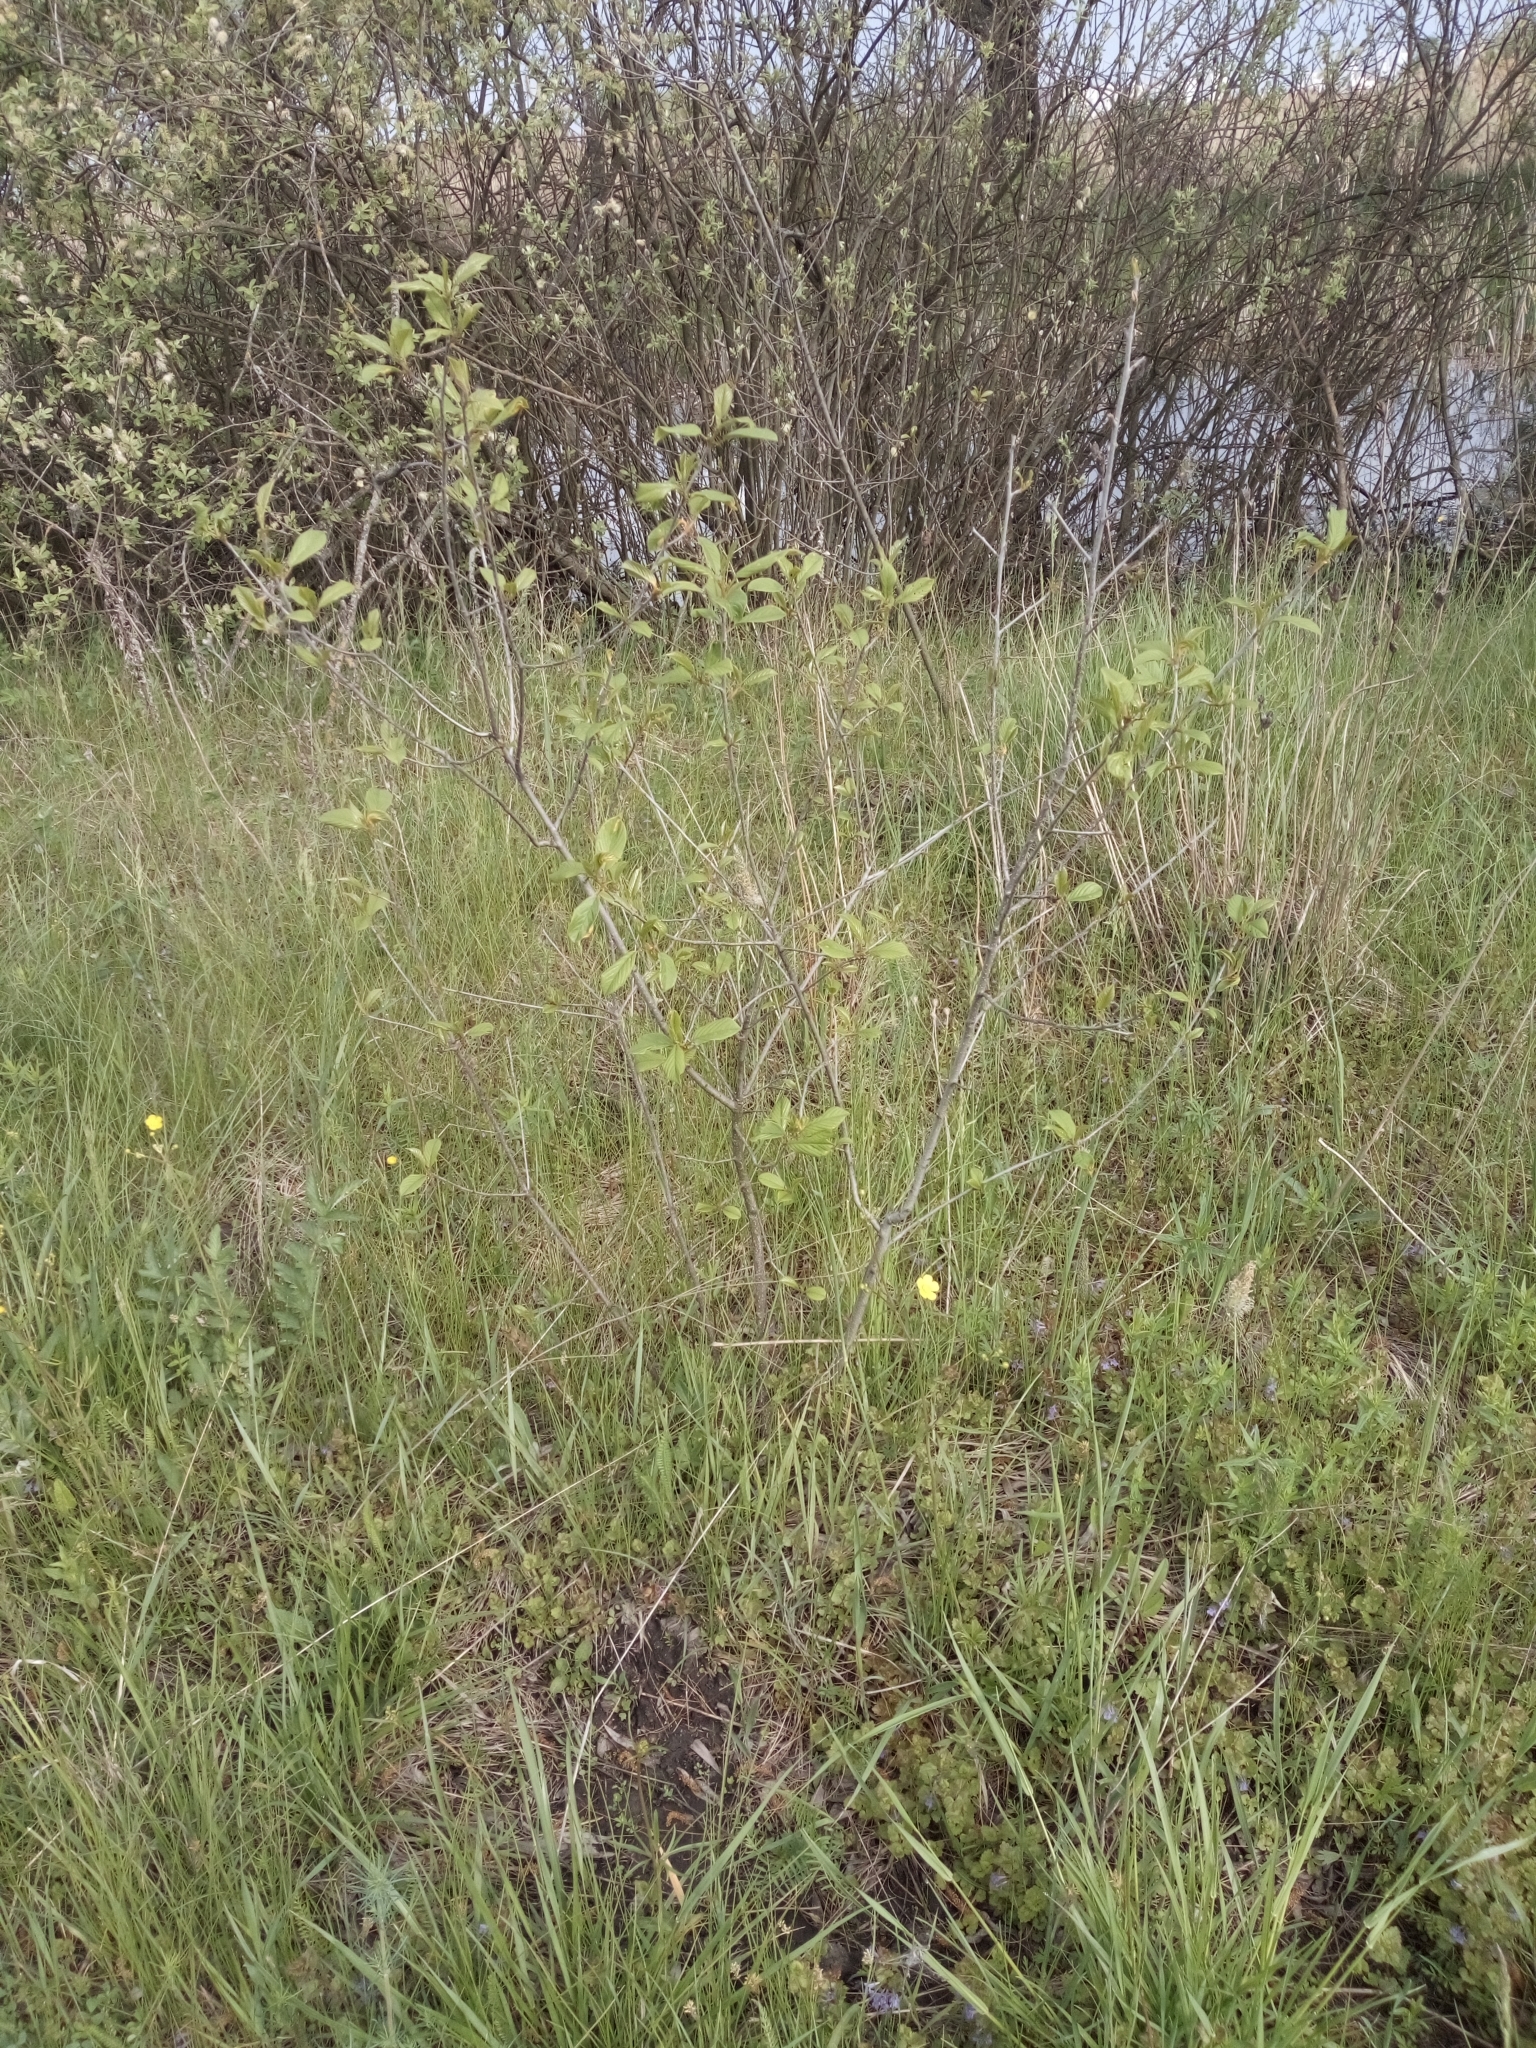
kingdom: Plantae
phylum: Tracheophyta
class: Magnoliopsida
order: Rosales
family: Rhamnaceae
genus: Frangula
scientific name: Frangula alnus
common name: Alder buckthorn
